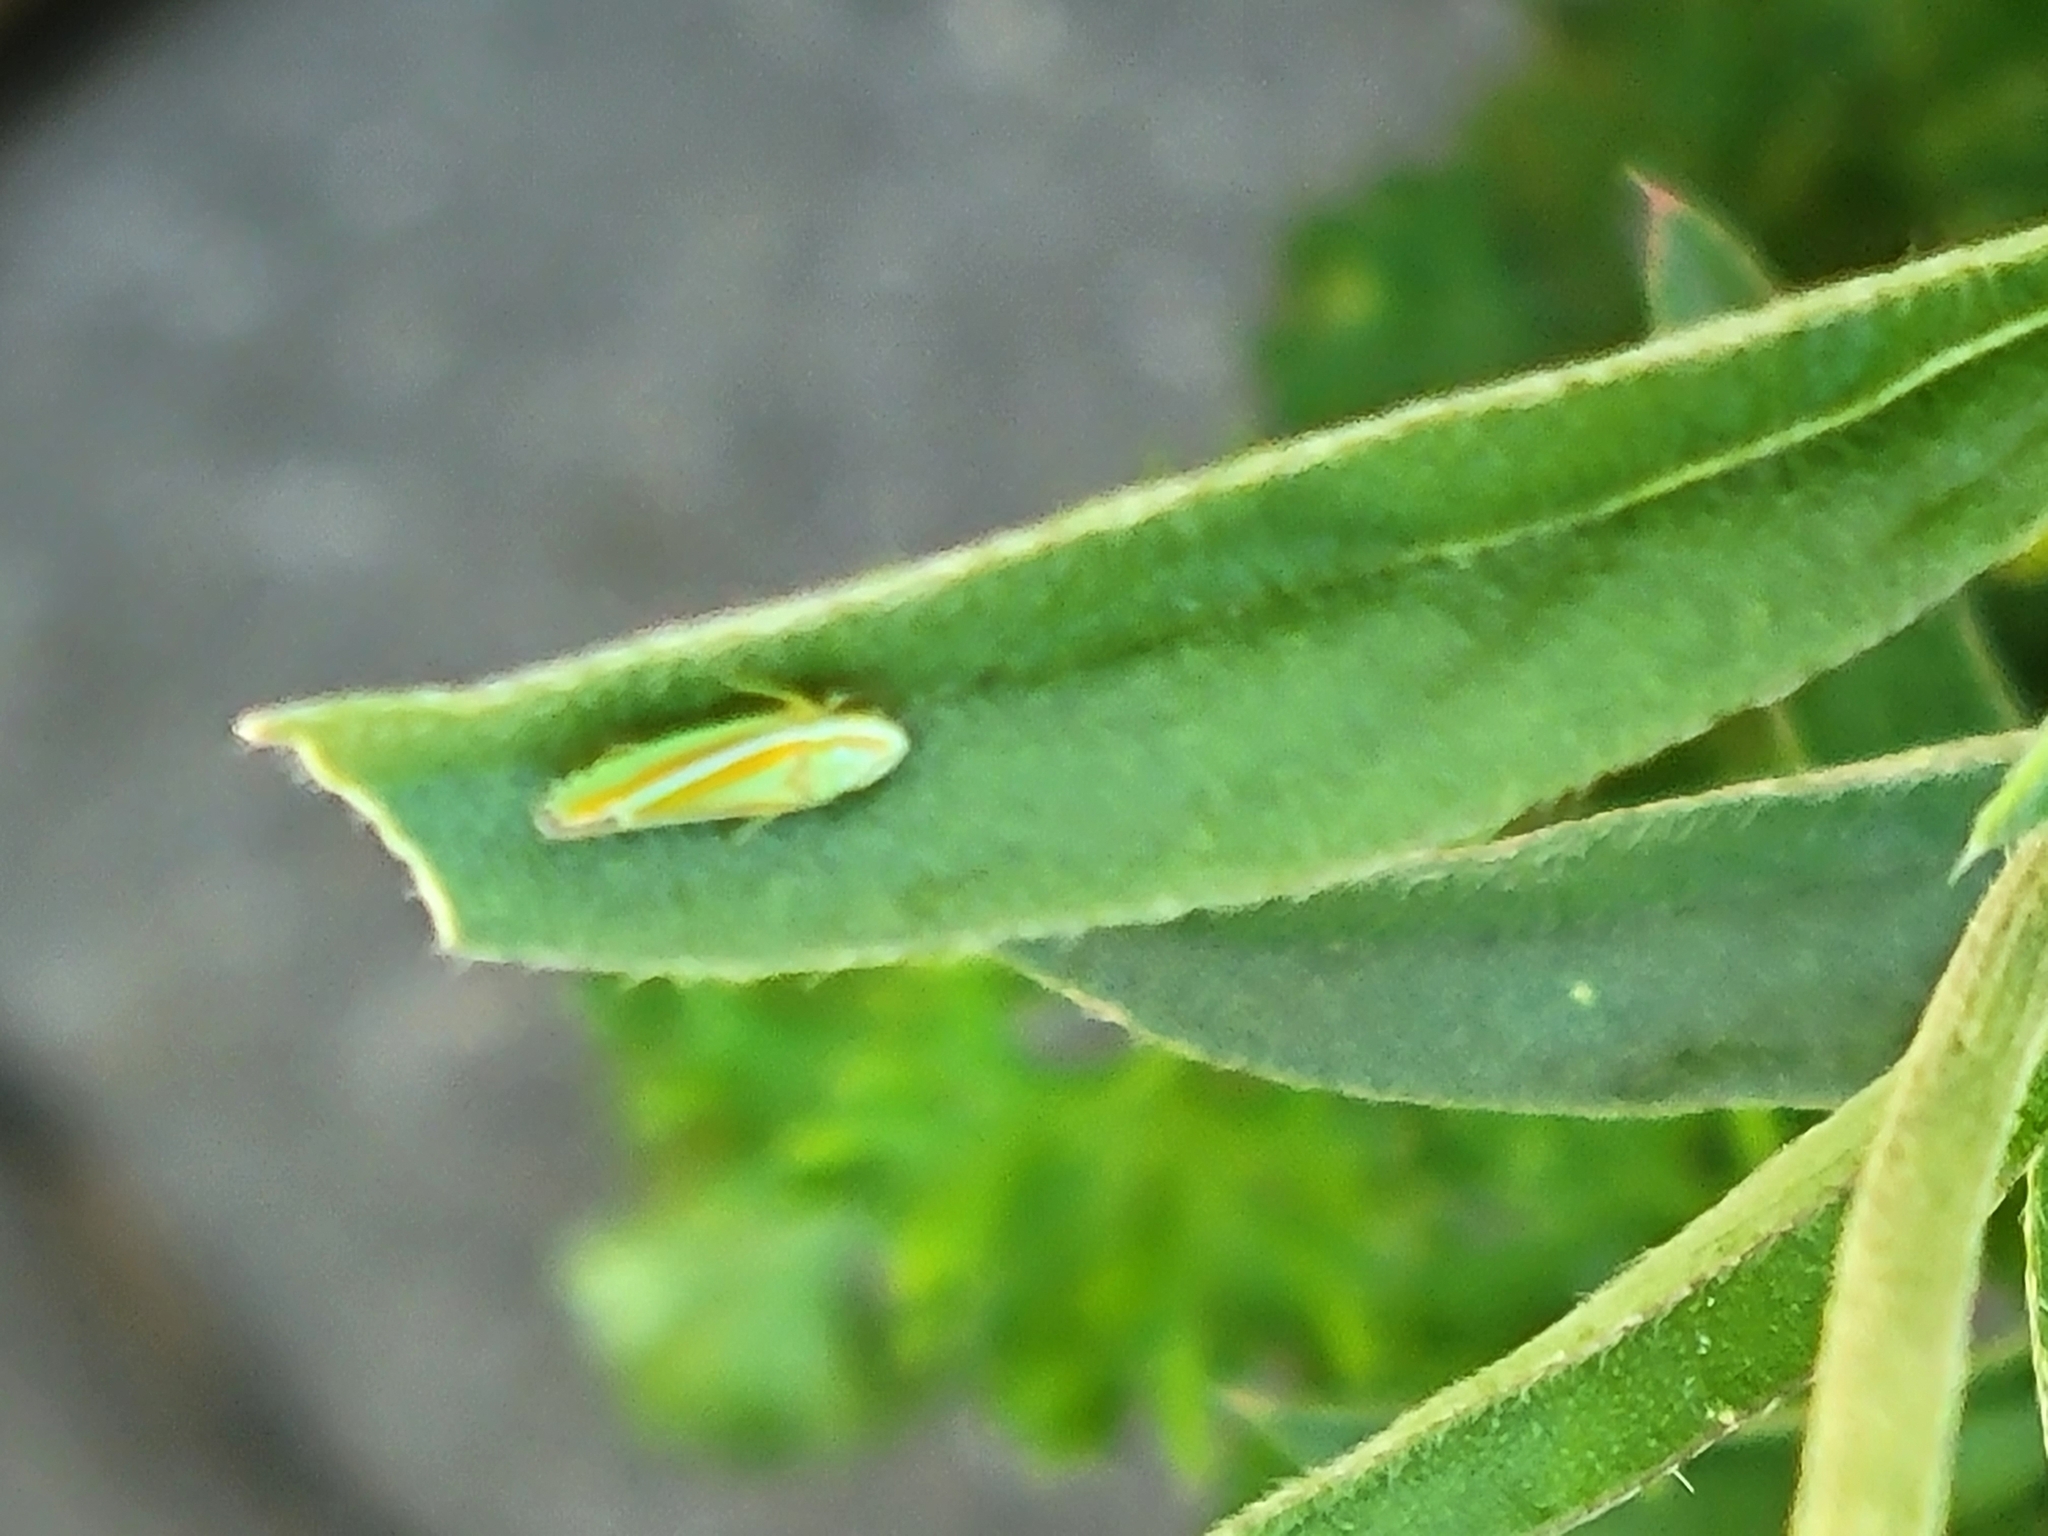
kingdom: Animalia
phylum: Arthropoda
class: Insecta
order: Hemiptera
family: Cicadellidae
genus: Graphocephala
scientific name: Graphocephala versuta
